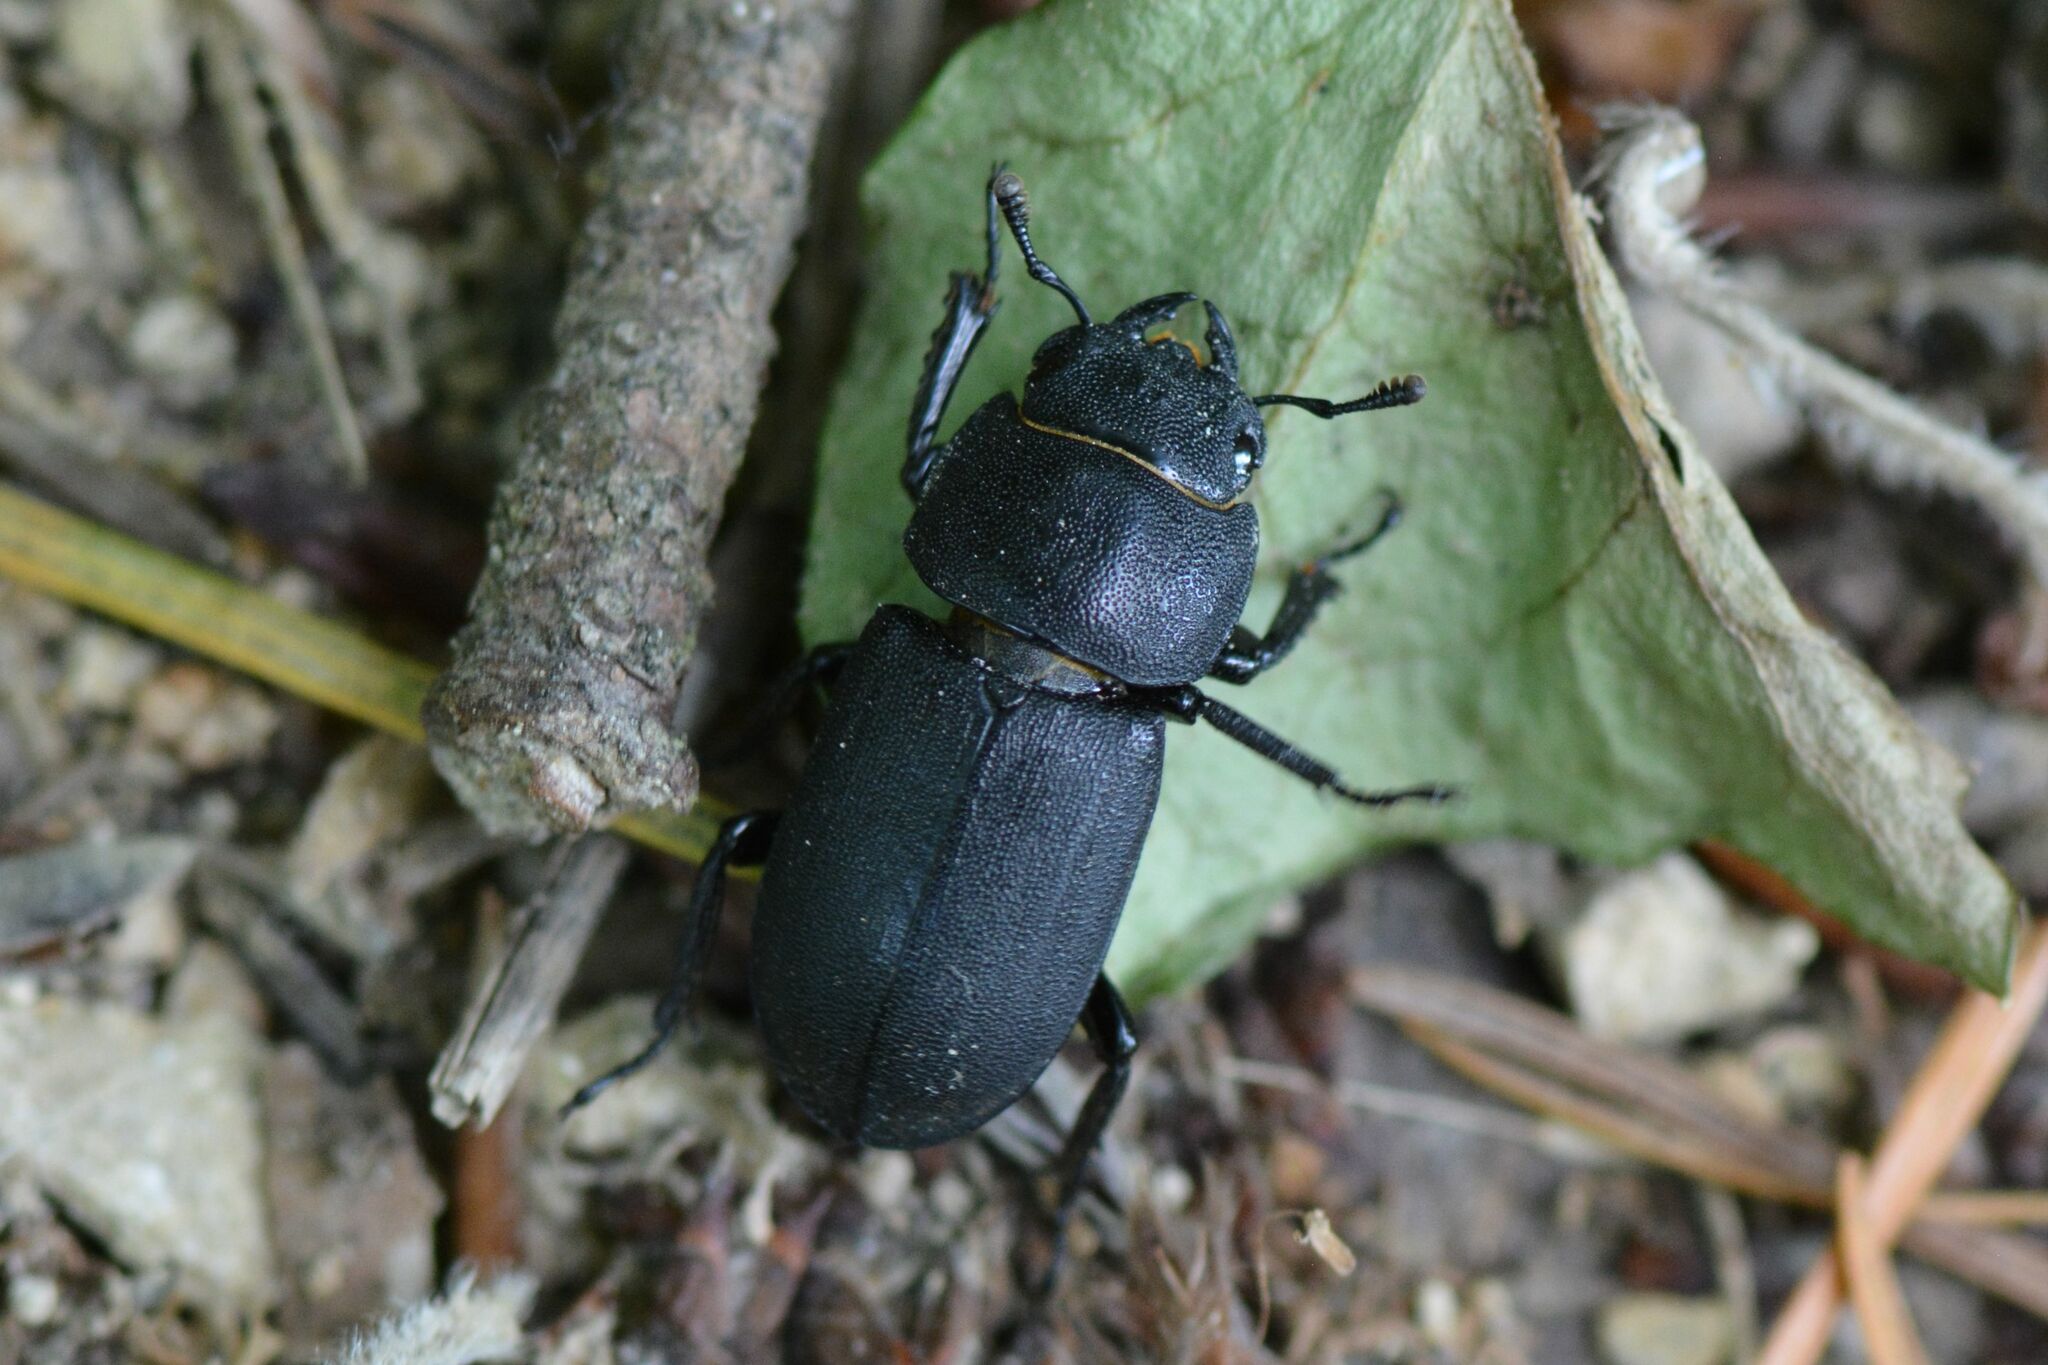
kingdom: Animalia
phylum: Arthropoda
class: Insecta
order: Coleoptera
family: Lucanidae
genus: Dorcus
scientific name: Dorcus parallelipipedus
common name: Lesser stag beetle
